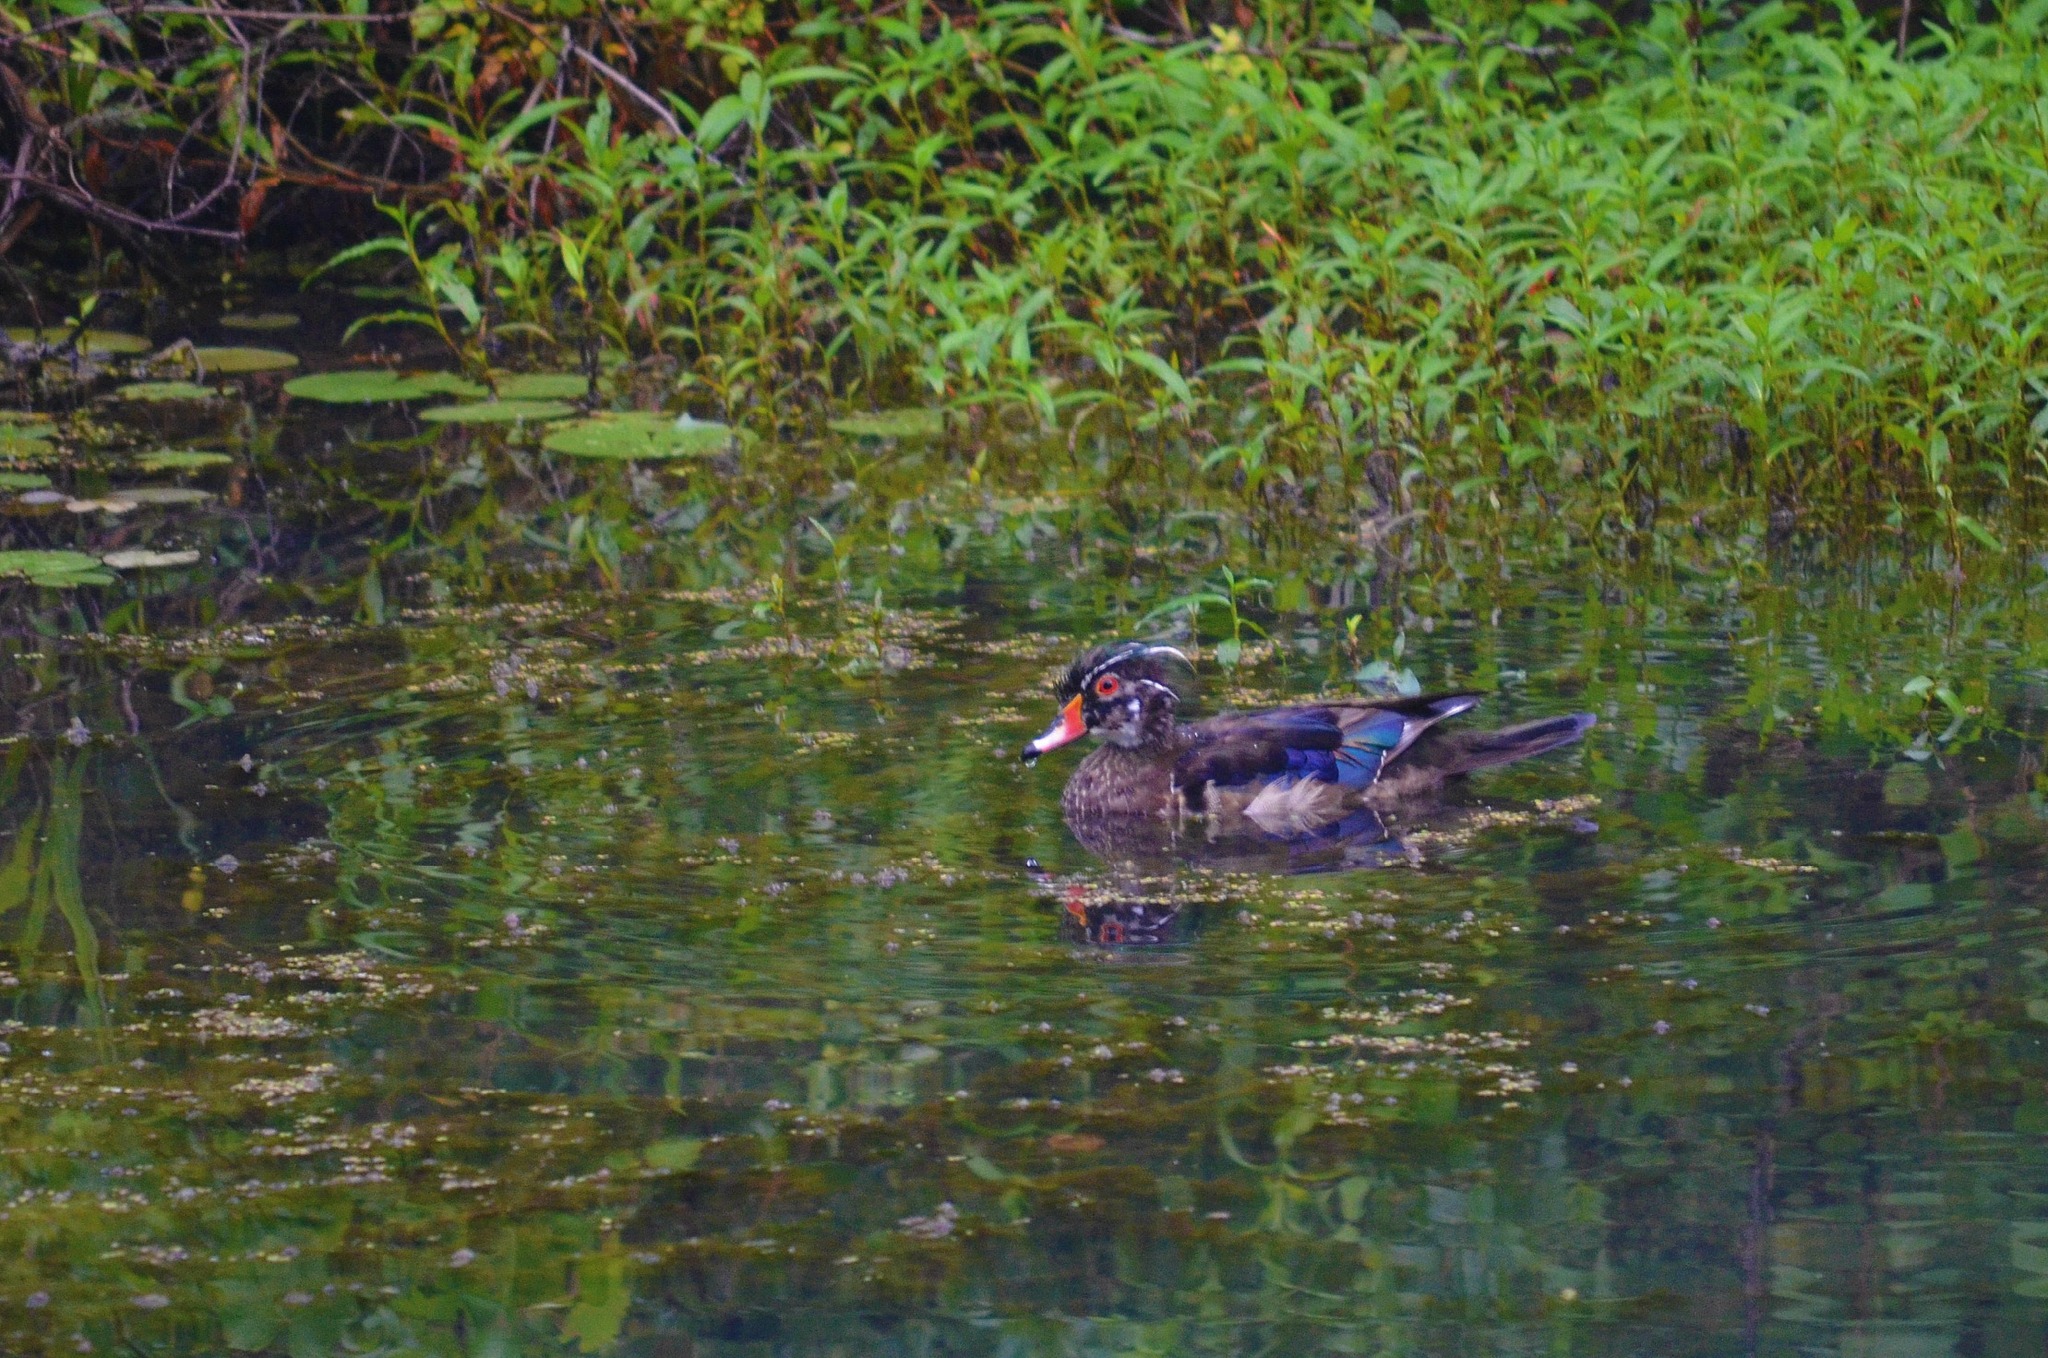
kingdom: Animalia
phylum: Chordata
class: Aves
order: Anseriformes
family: Anatidae
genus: Aix
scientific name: Aix sponsa
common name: Wood duck
